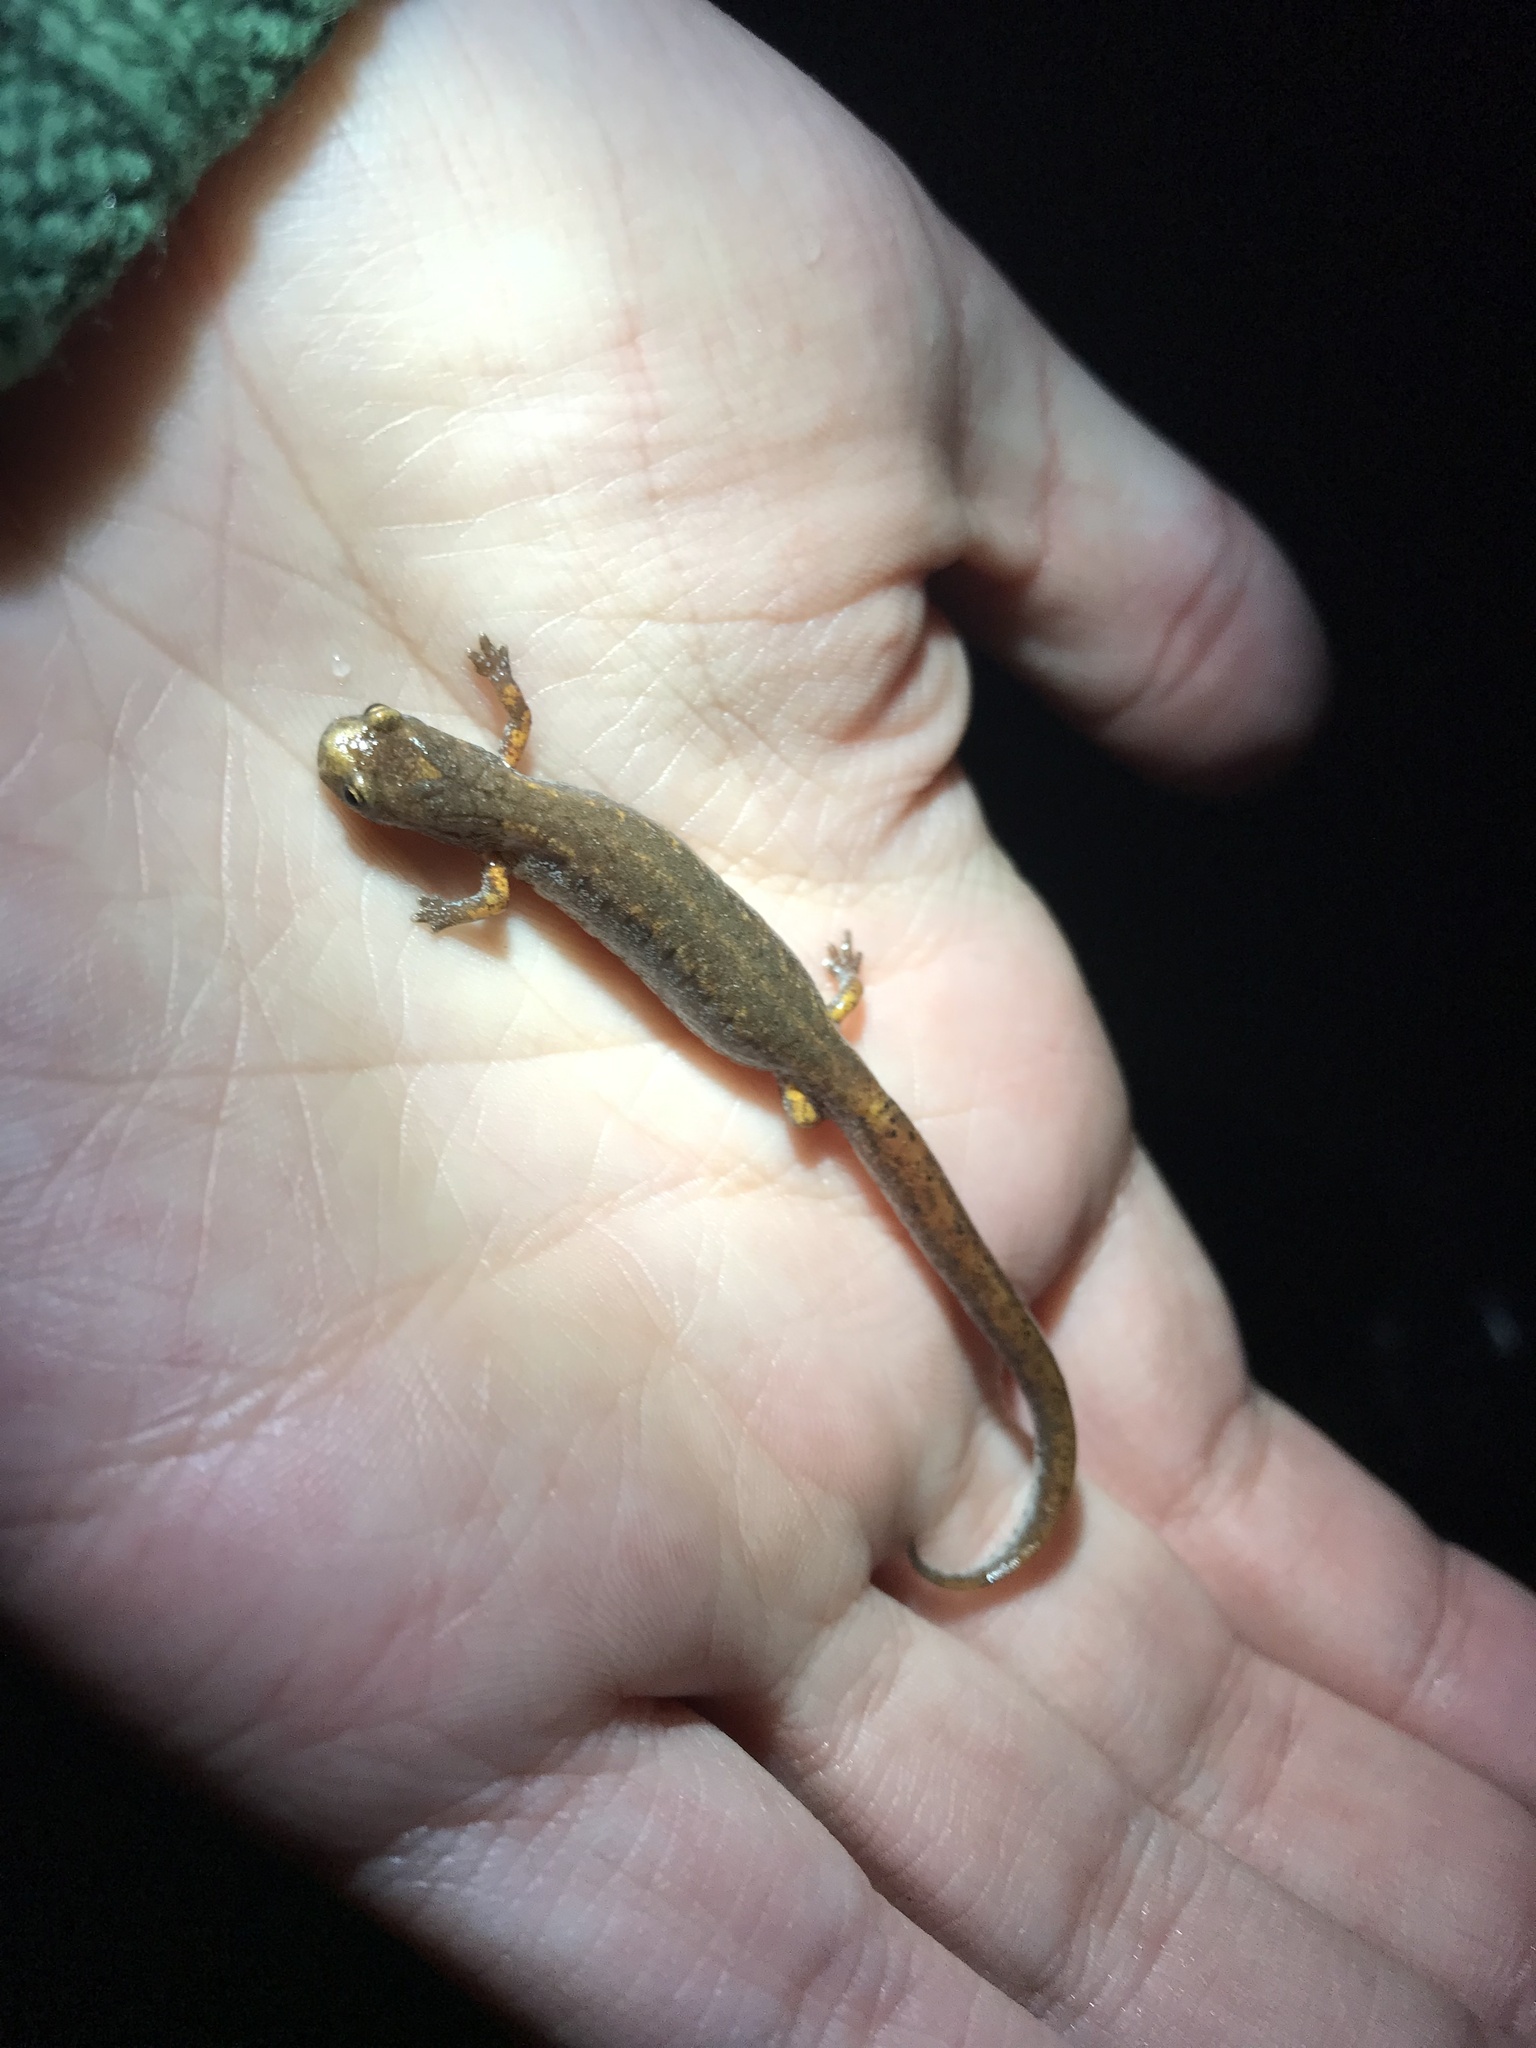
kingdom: Animalia
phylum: Chordata
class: Amphibia
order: Caudata
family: Plethodontidae
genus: Hemidactylium
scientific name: Hemidactylium scutatum
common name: Four-toed salamander
